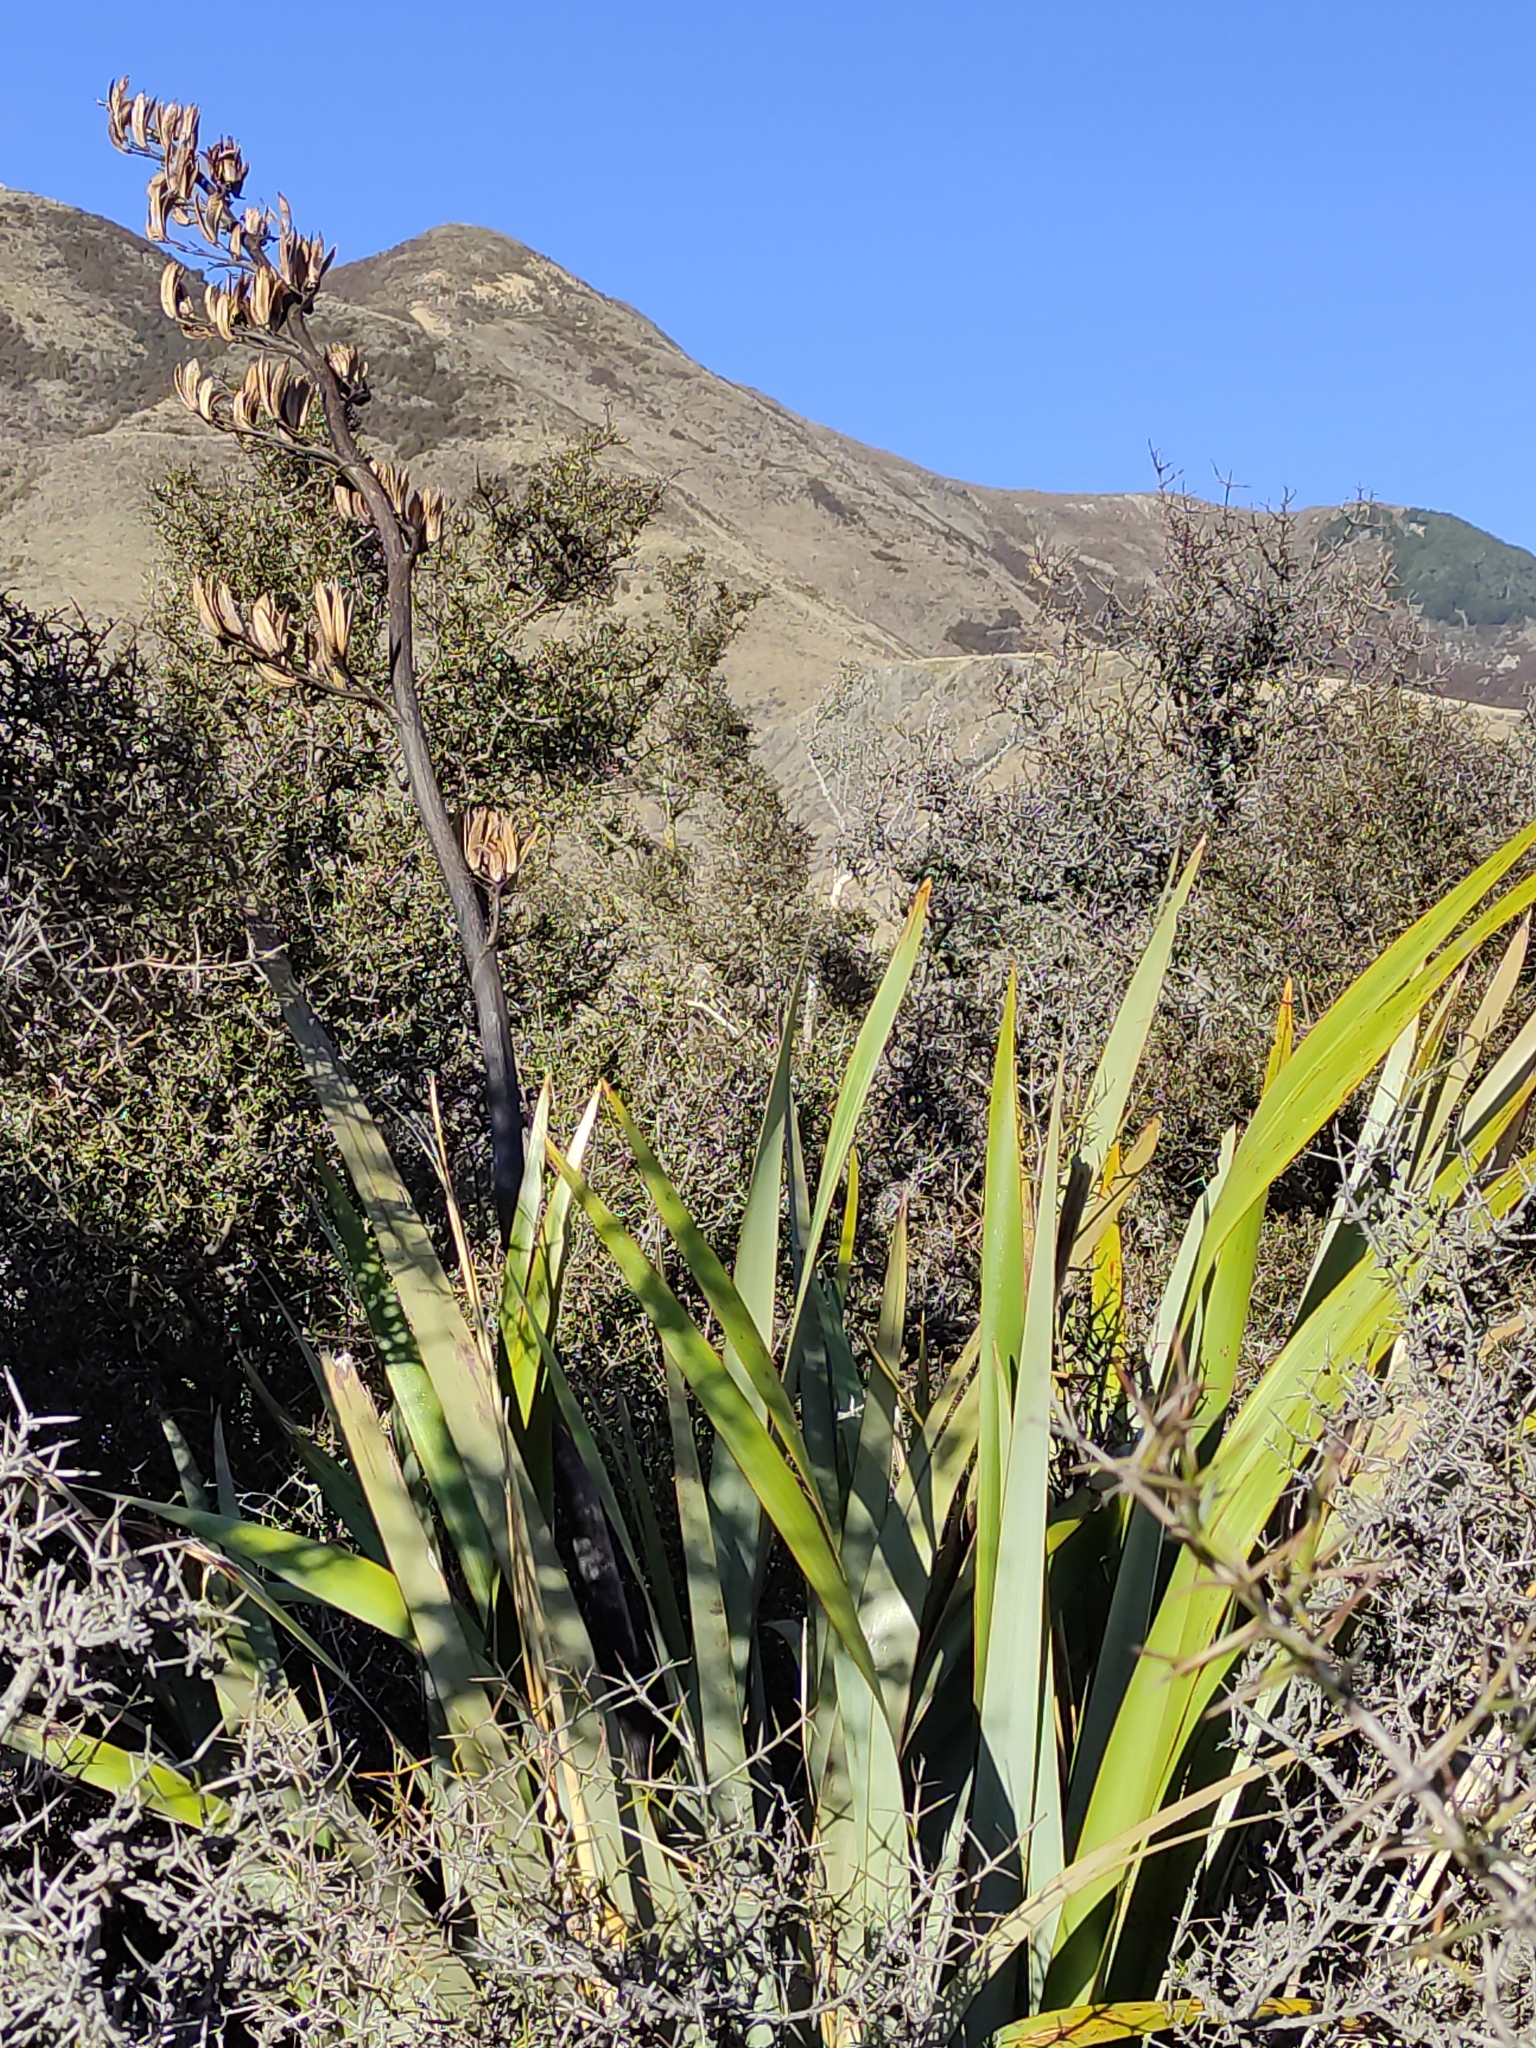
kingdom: Plantae
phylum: Tracheophyta
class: Liliopsida
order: Asparagales
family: Asphodelaceae
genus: Phormium
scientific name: Phormium tenax
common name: New zealand flax
